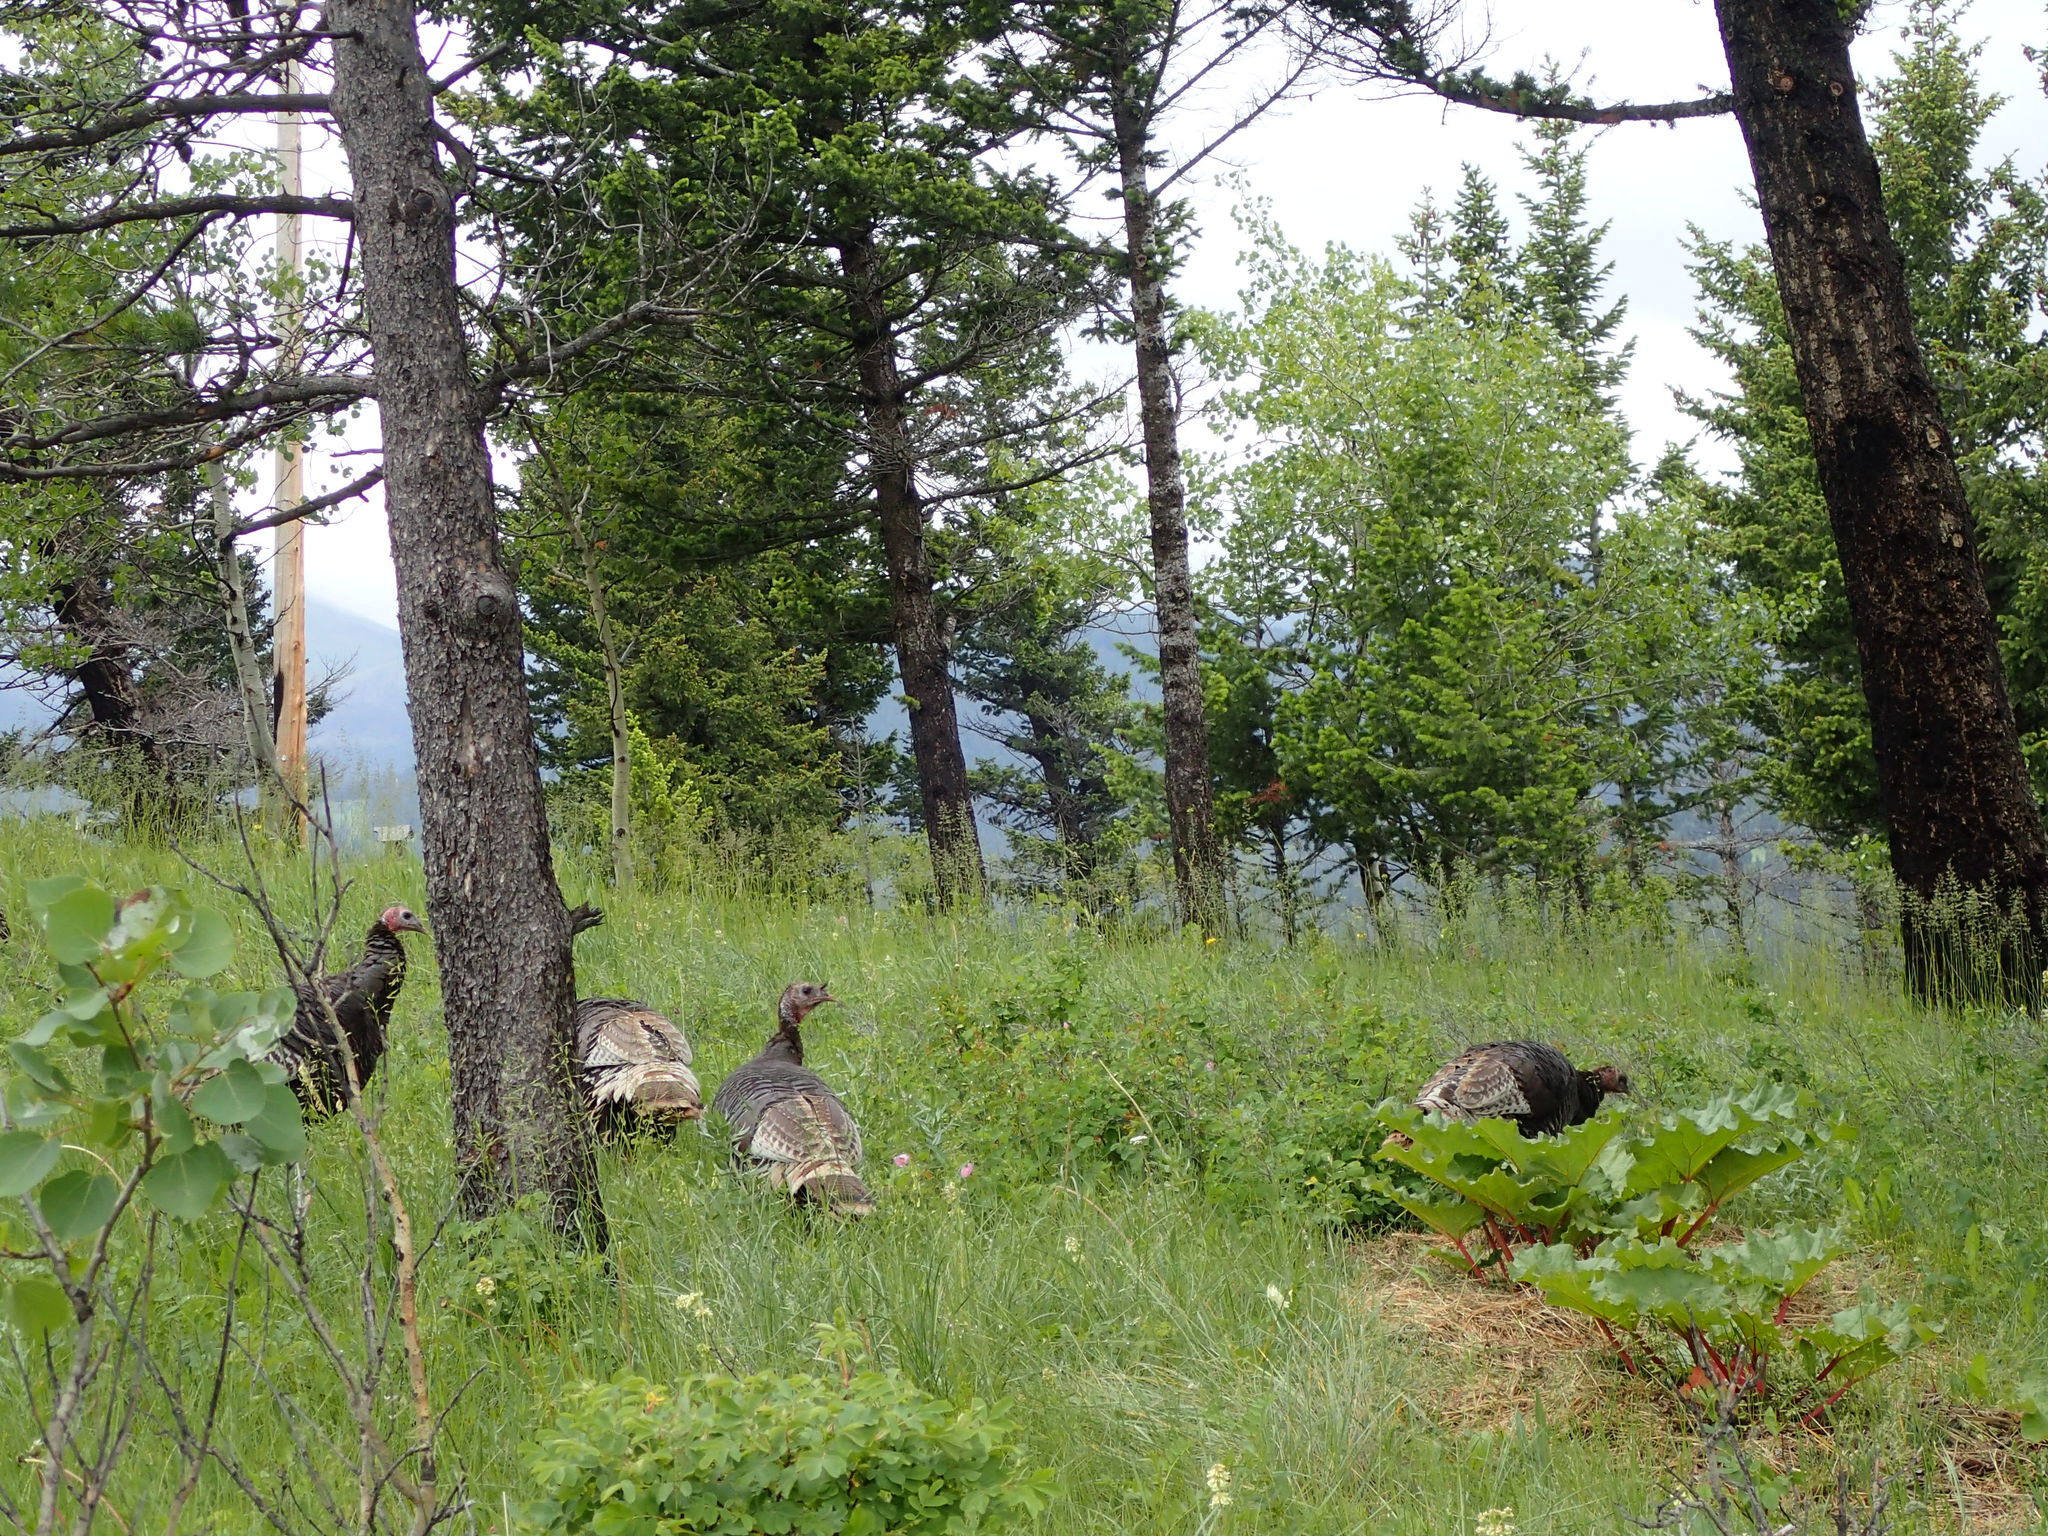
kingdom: Animalia
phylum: Chordata
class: Aves
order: Galliformes
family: Phasianidae
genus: Meleagris
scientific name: Meleagris gallopavo
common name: Wild turkey
